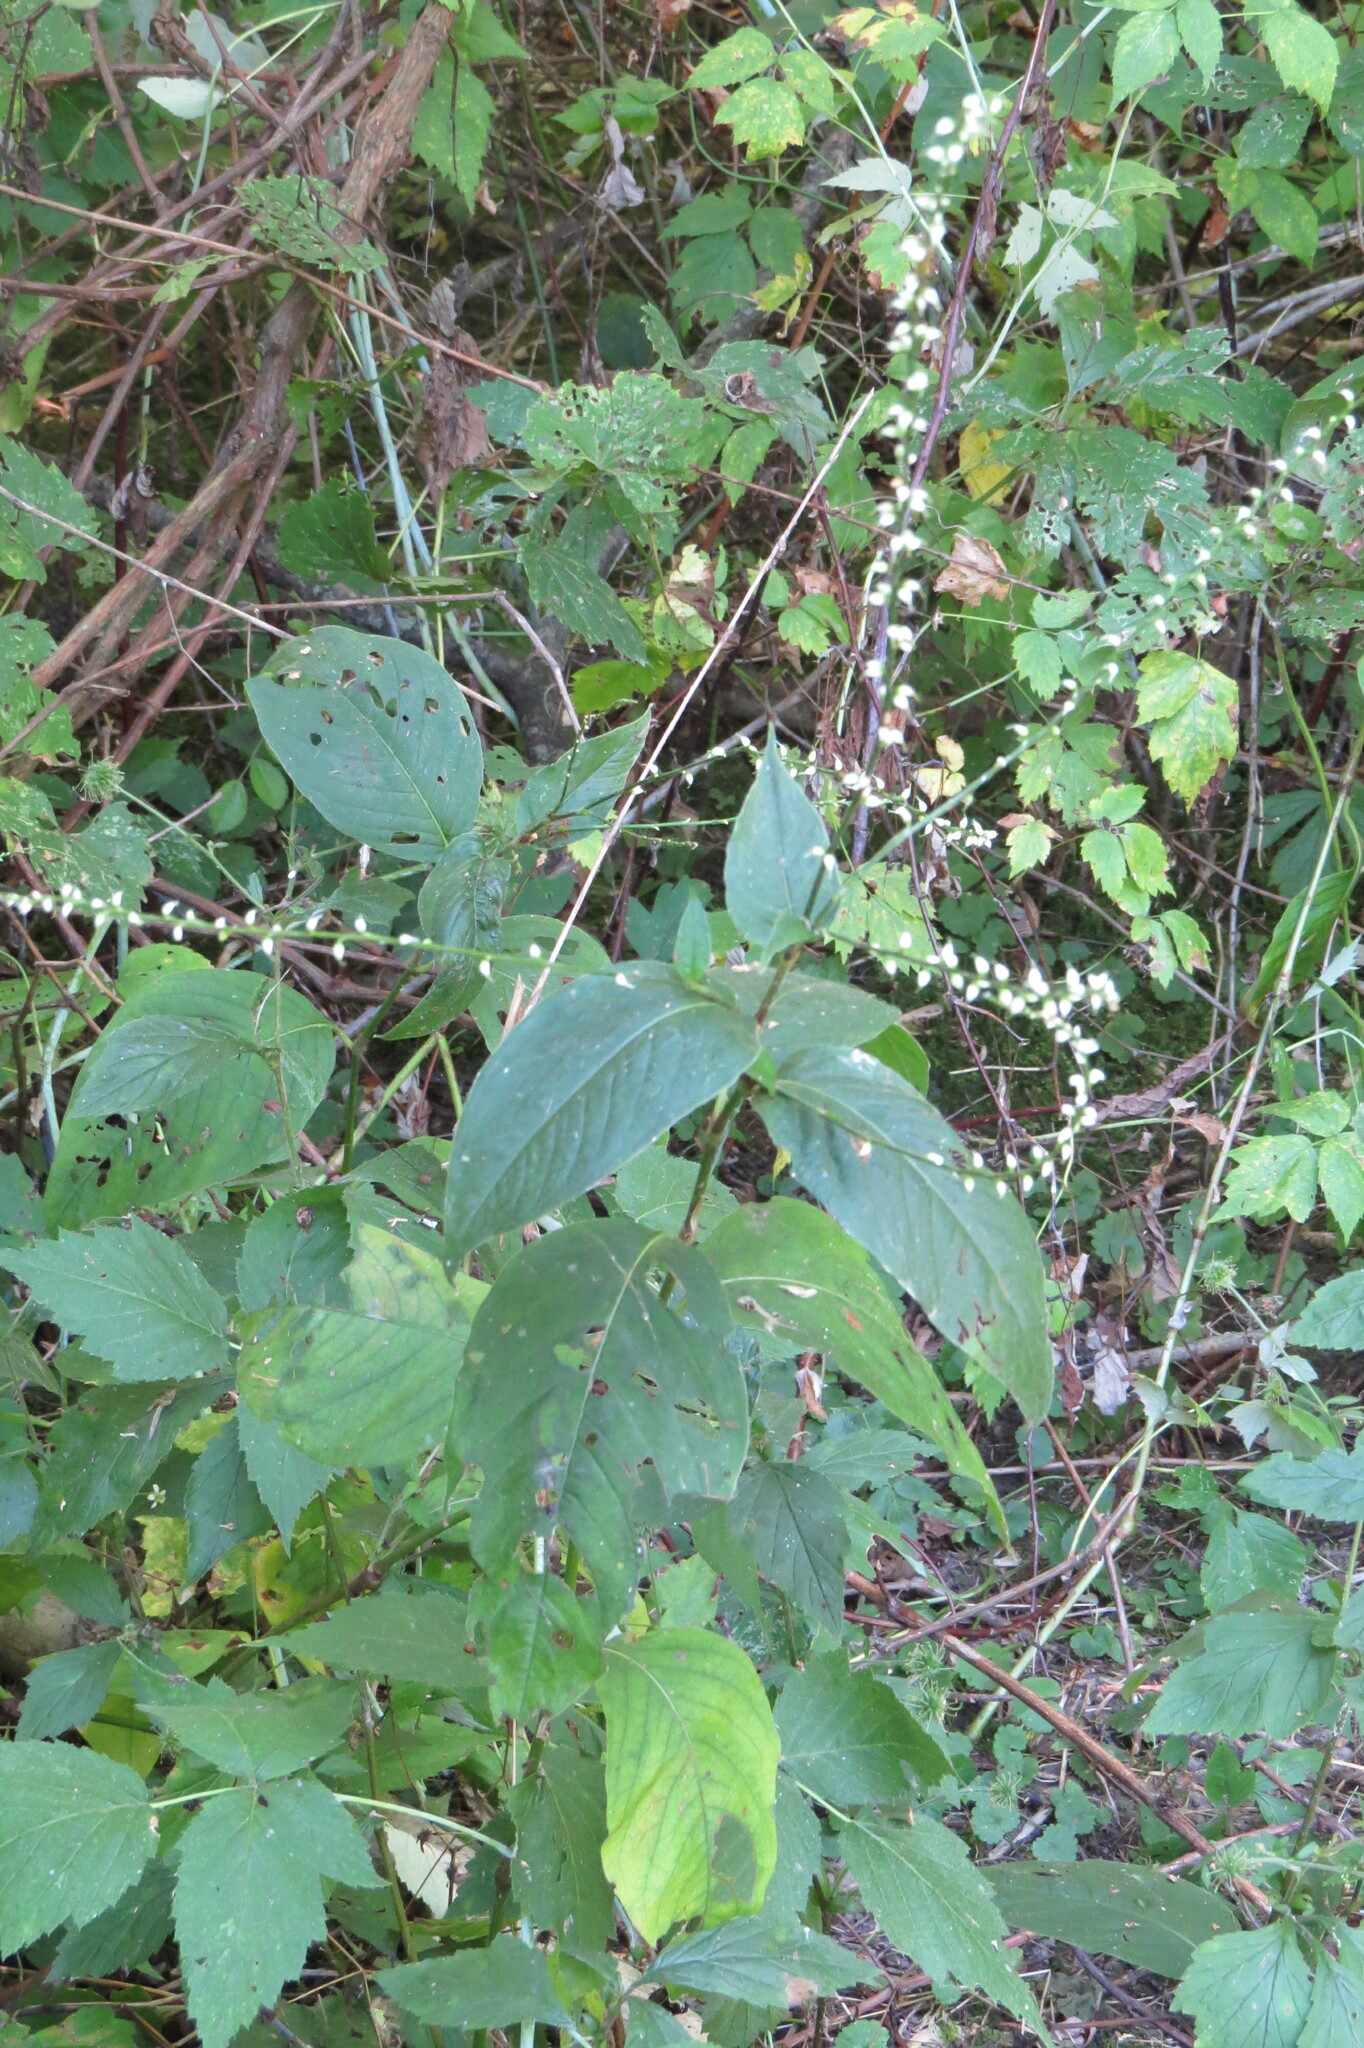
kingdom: Plantae
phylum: Tracheophyta
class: Magnoliopsida
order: Caryophyllales
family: Polygonaceae
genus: Persicaria
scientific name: Persicaria virginiana
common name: Jumpseed
